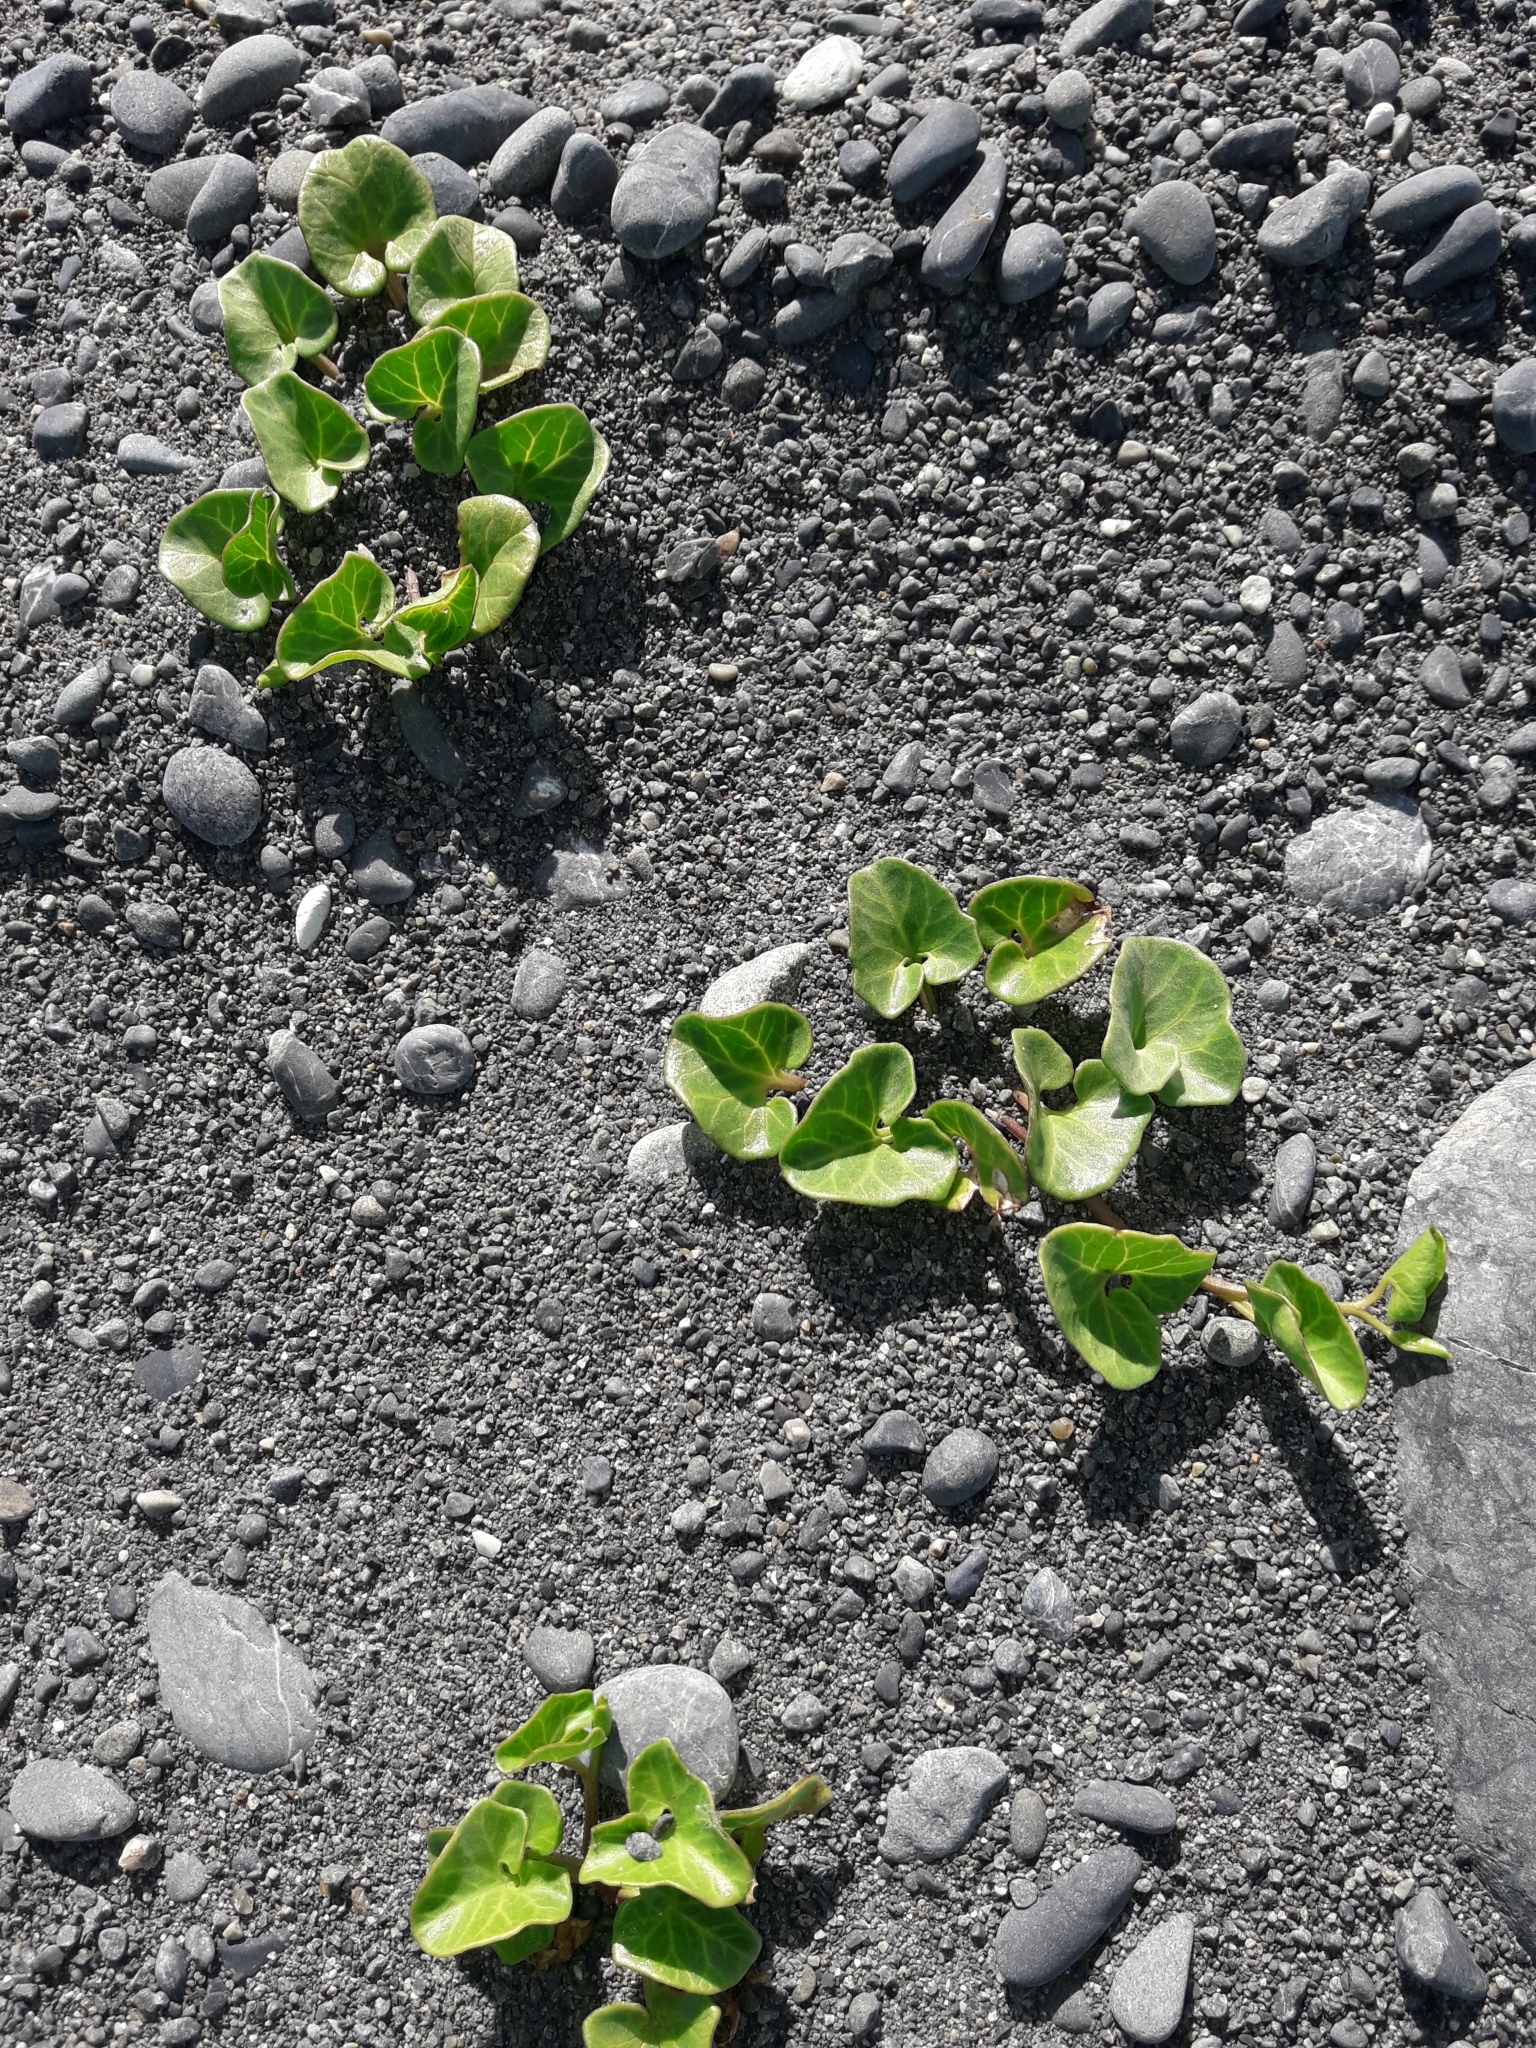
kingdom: Plantae
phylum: Tracheophyta
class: Magnoliopsida
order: Solanales
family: Convolvulaceae
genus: Calystegia
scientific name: Calystegia soldanella
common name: Sea bindweed
